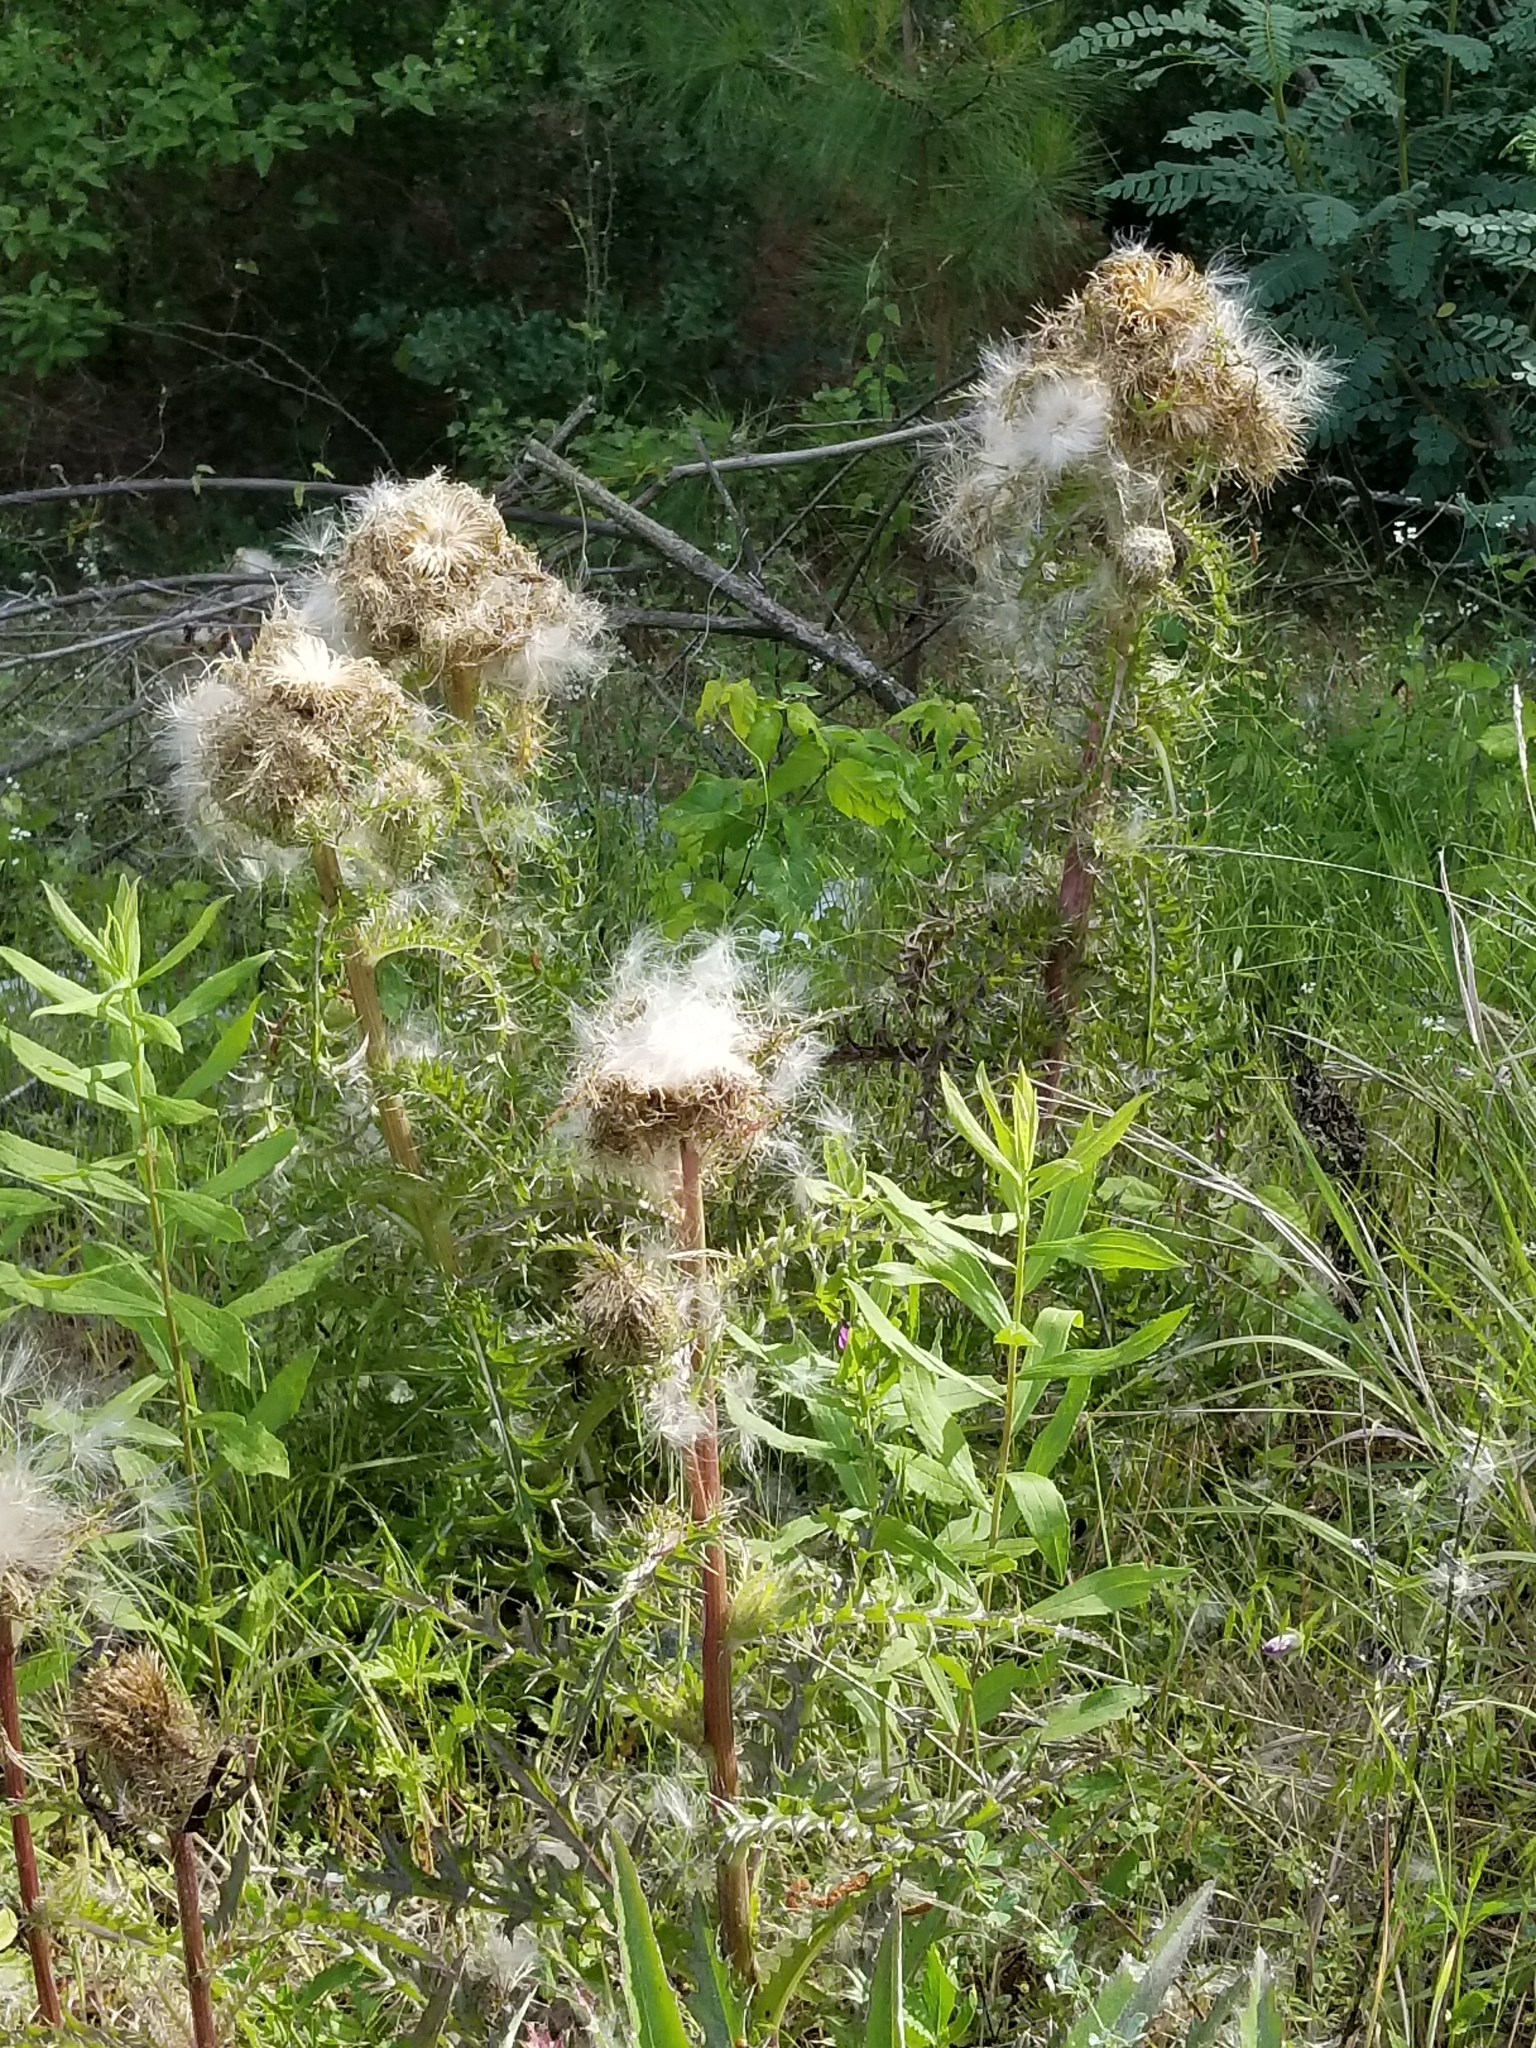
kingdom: Plantae
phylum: Tracheophyta
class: Magnoliopsida
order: Asterales
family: Asteraceae
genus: Cirsium
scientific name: Cirsium horridulum
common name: Bristly thistle
